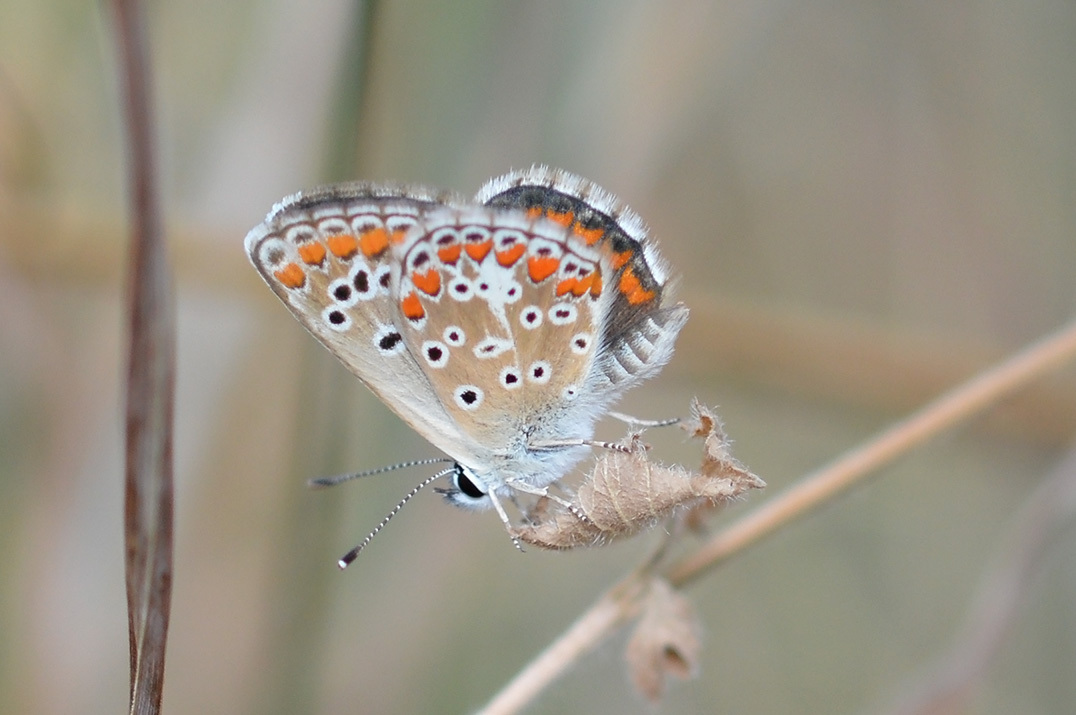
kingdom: Animalia
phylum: Arthropoda
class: Insecta
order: Lepidoptera
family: Lycaenidae
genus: Aricia
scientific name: Aricia agestis
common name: Brown argus
